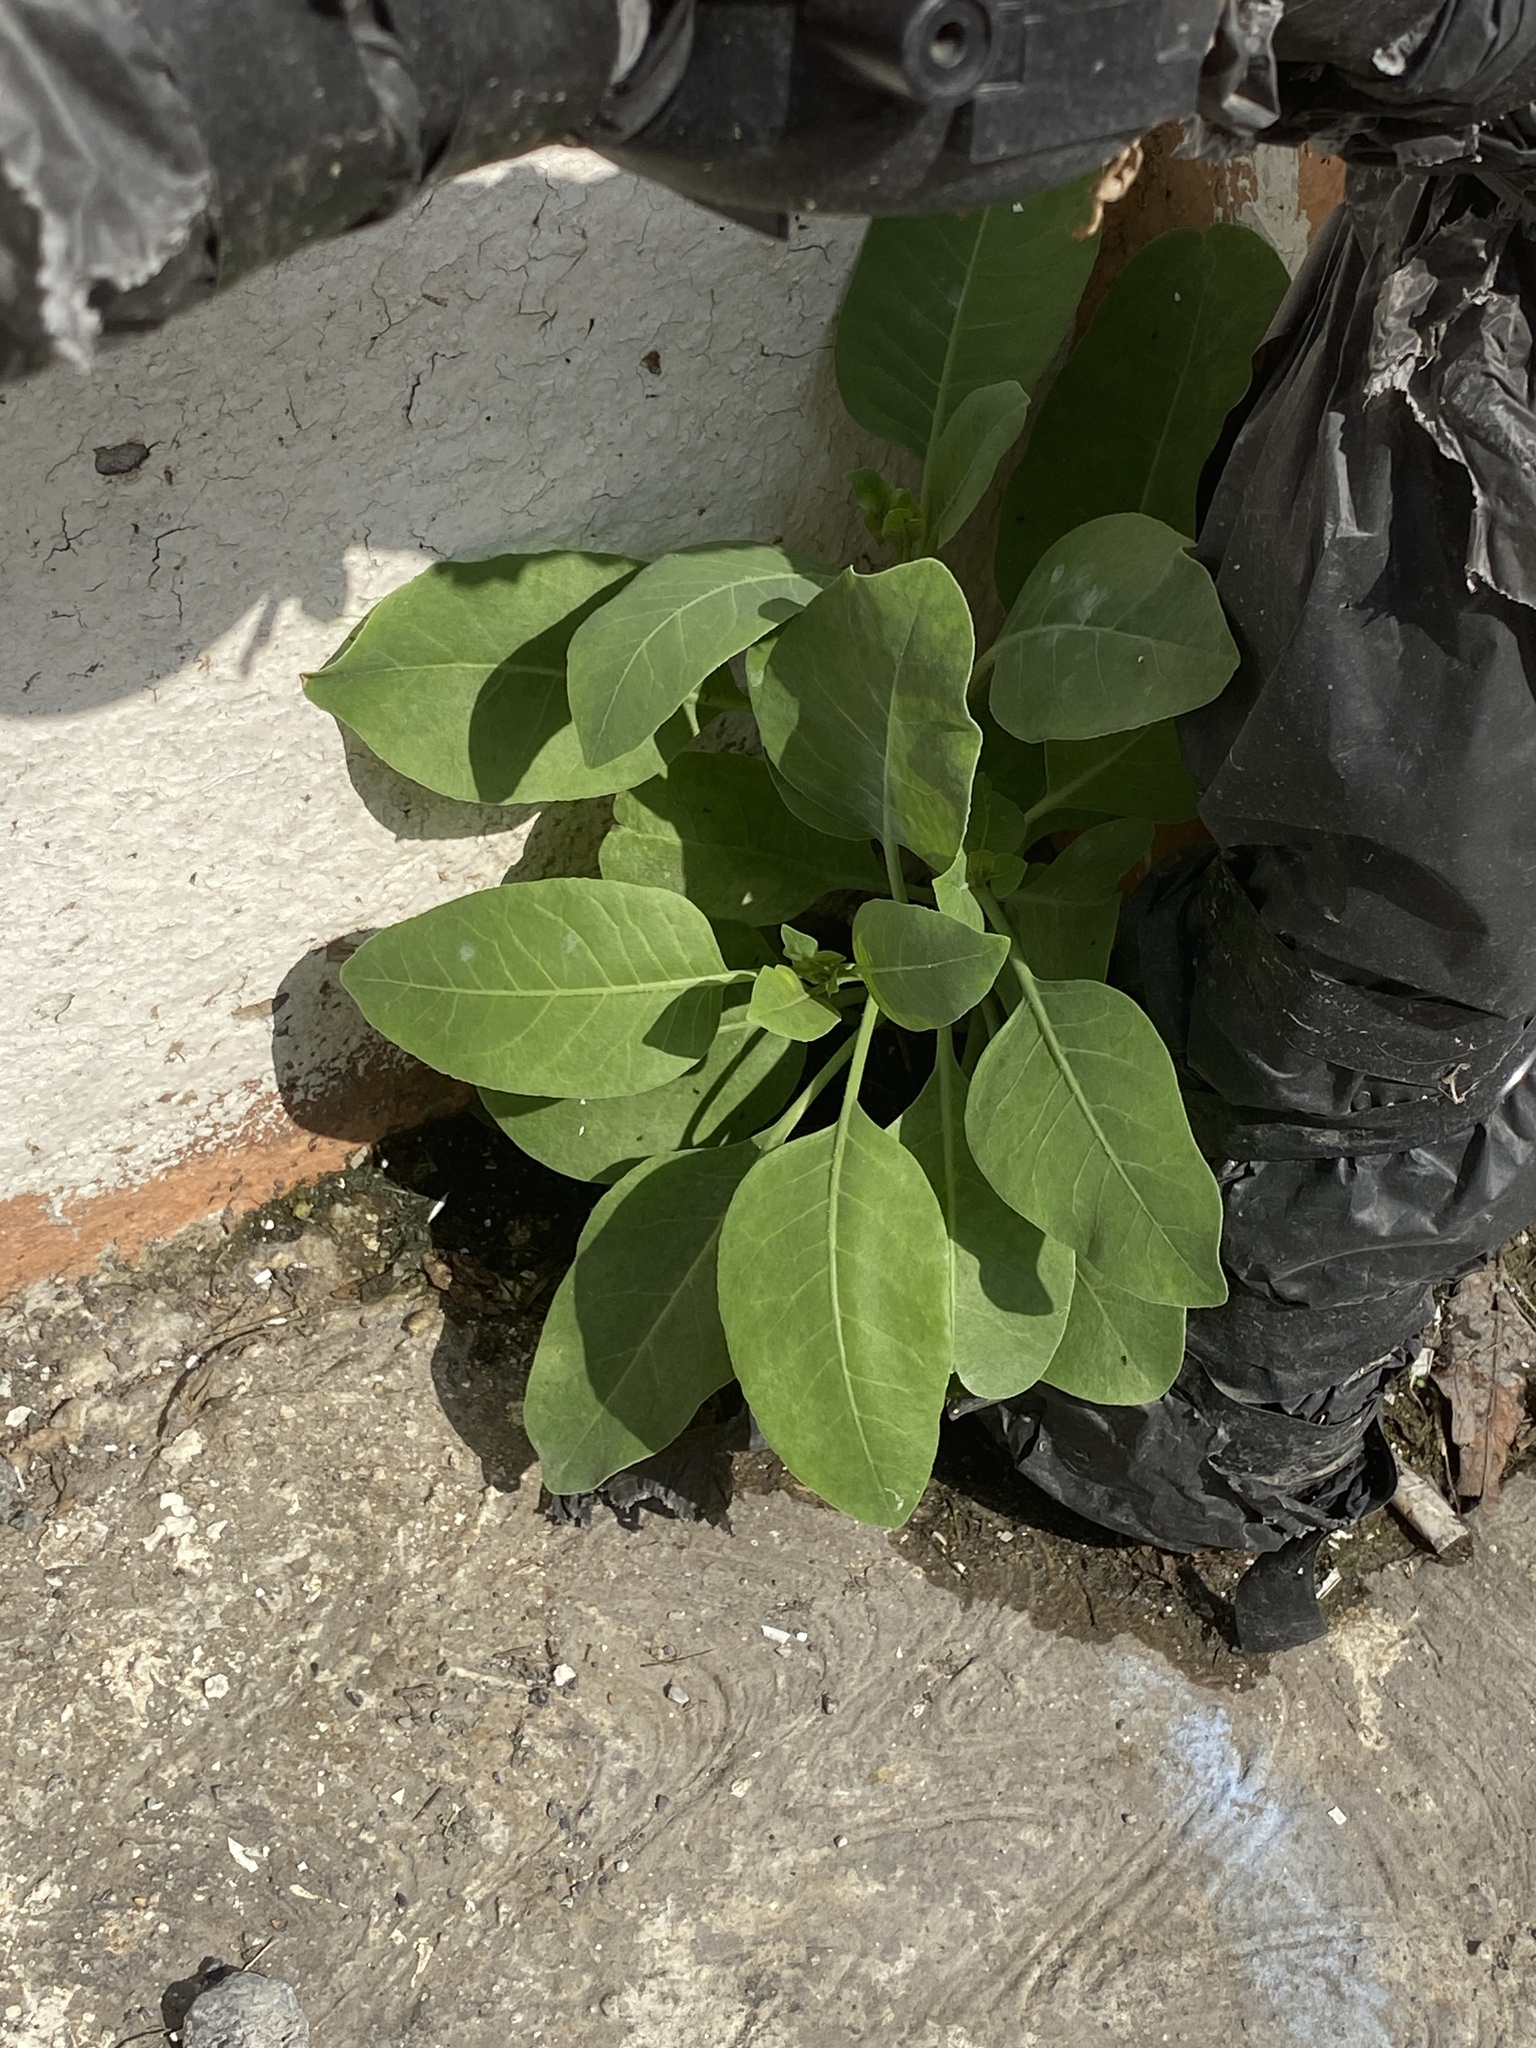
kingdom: Plantae
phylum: Tracheophyta
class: Magnoliopsida
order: Solanales
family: Solanaceae
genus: Nicotiana
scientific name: Nicotiana glauca
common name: Tree tobacco
